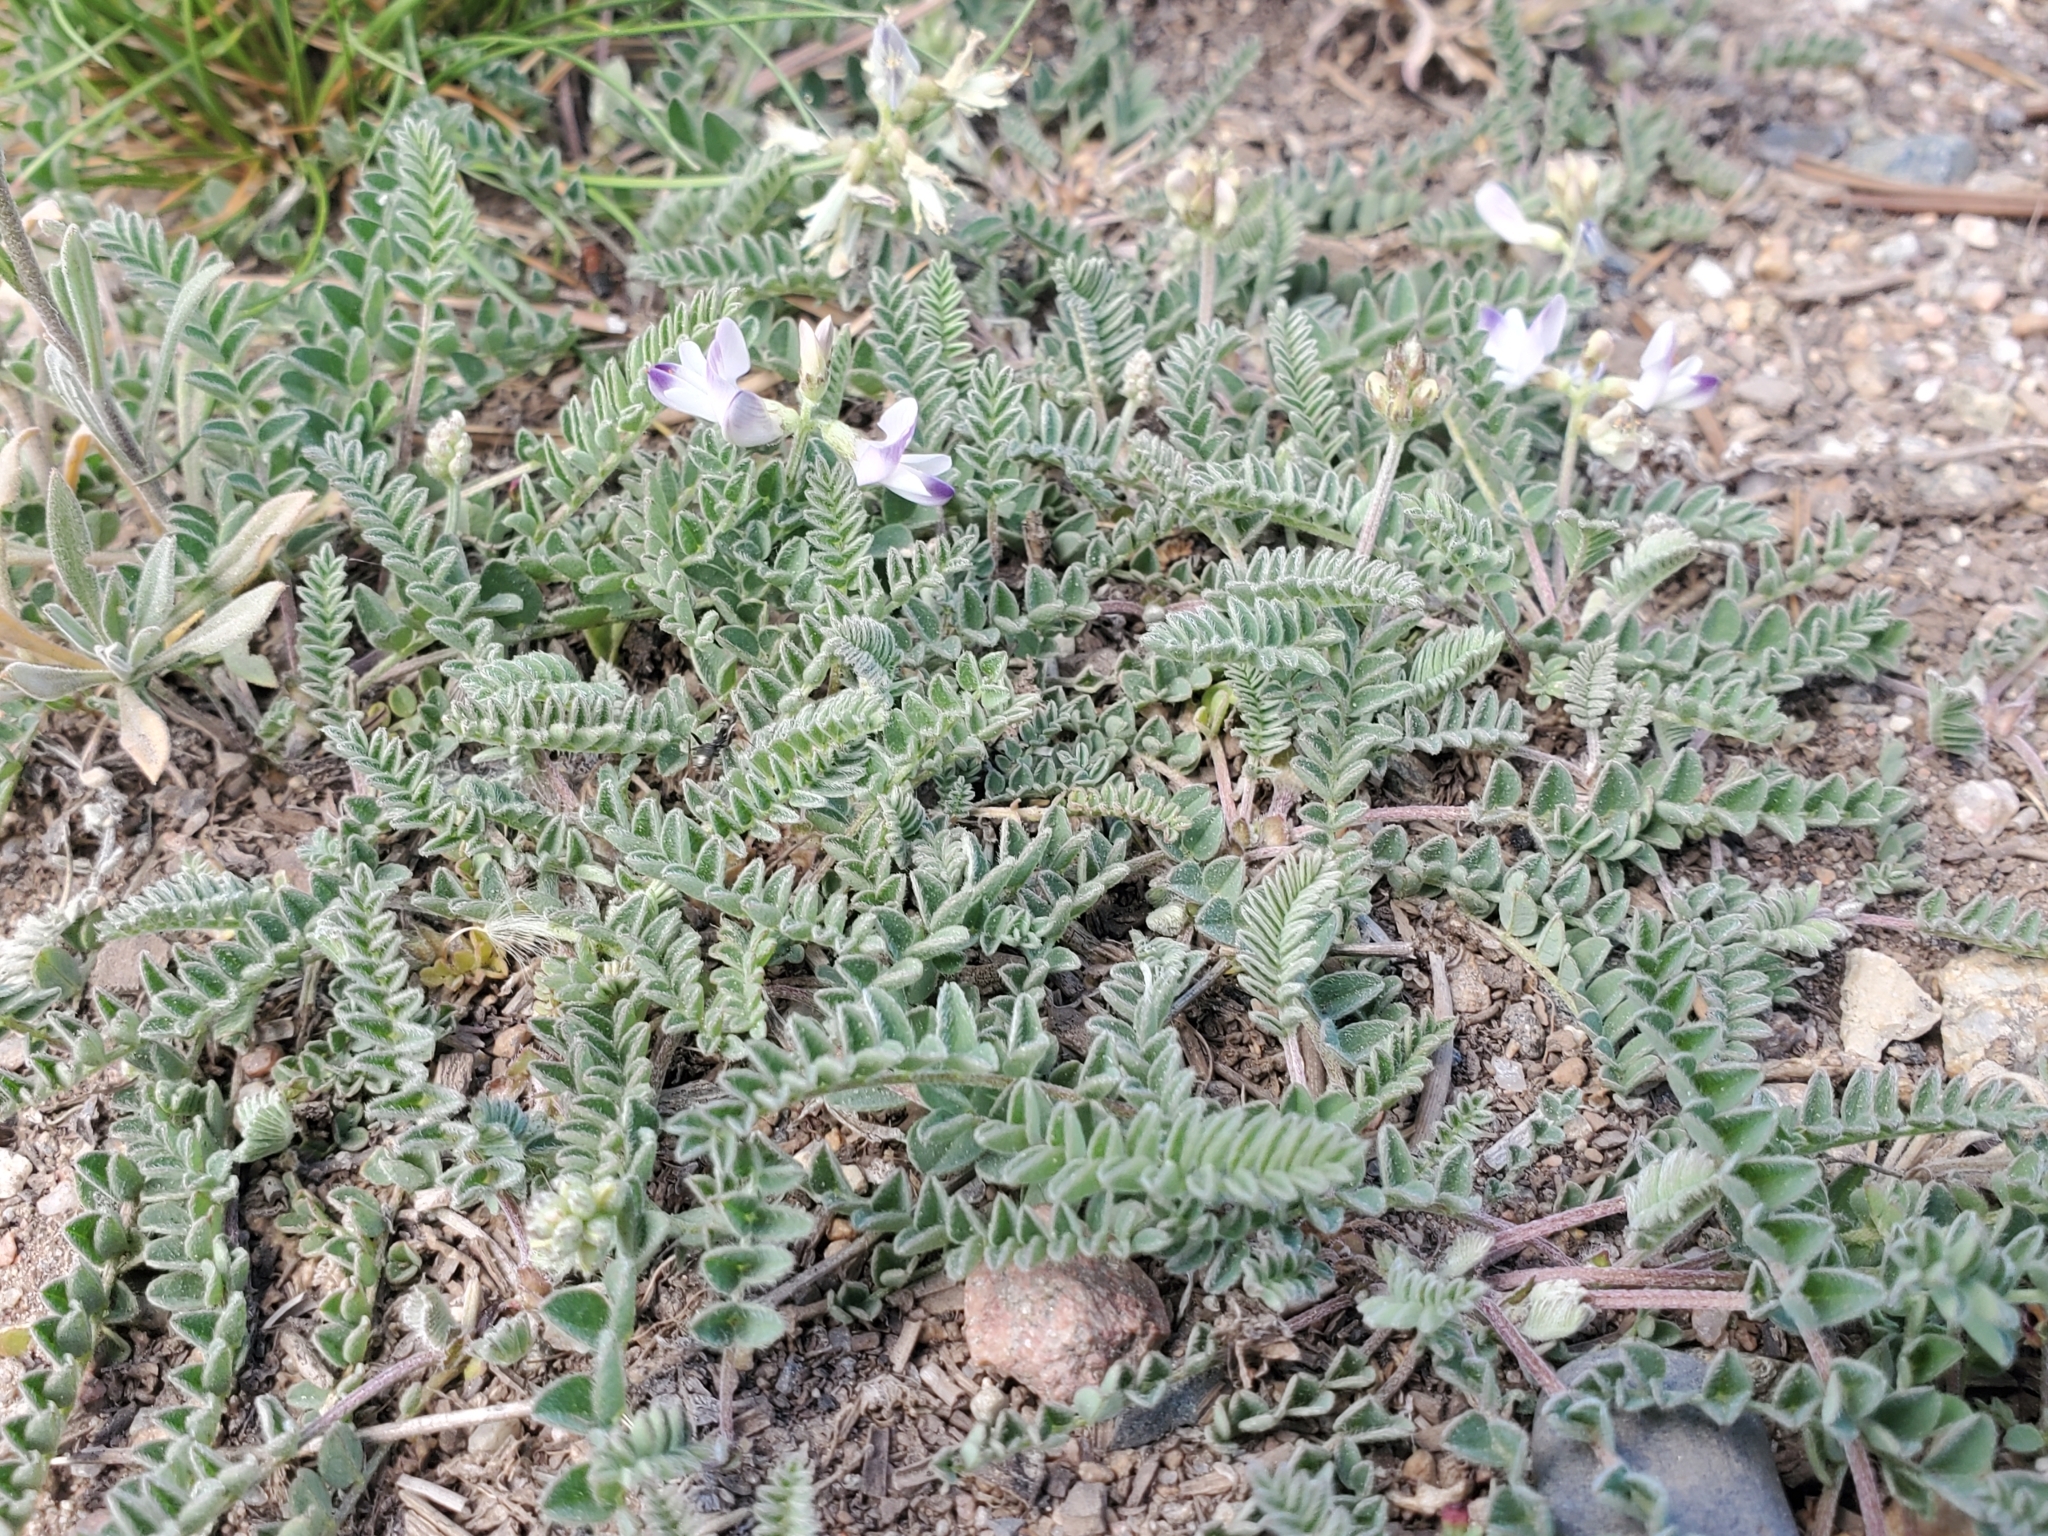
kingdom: Plantae
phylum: Tracheophyta
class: Magnoliopsida
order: Fabales
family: Fabaceae
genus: Astragalus
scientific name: Astragalus alpinus
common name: Alpine milk-vetch
